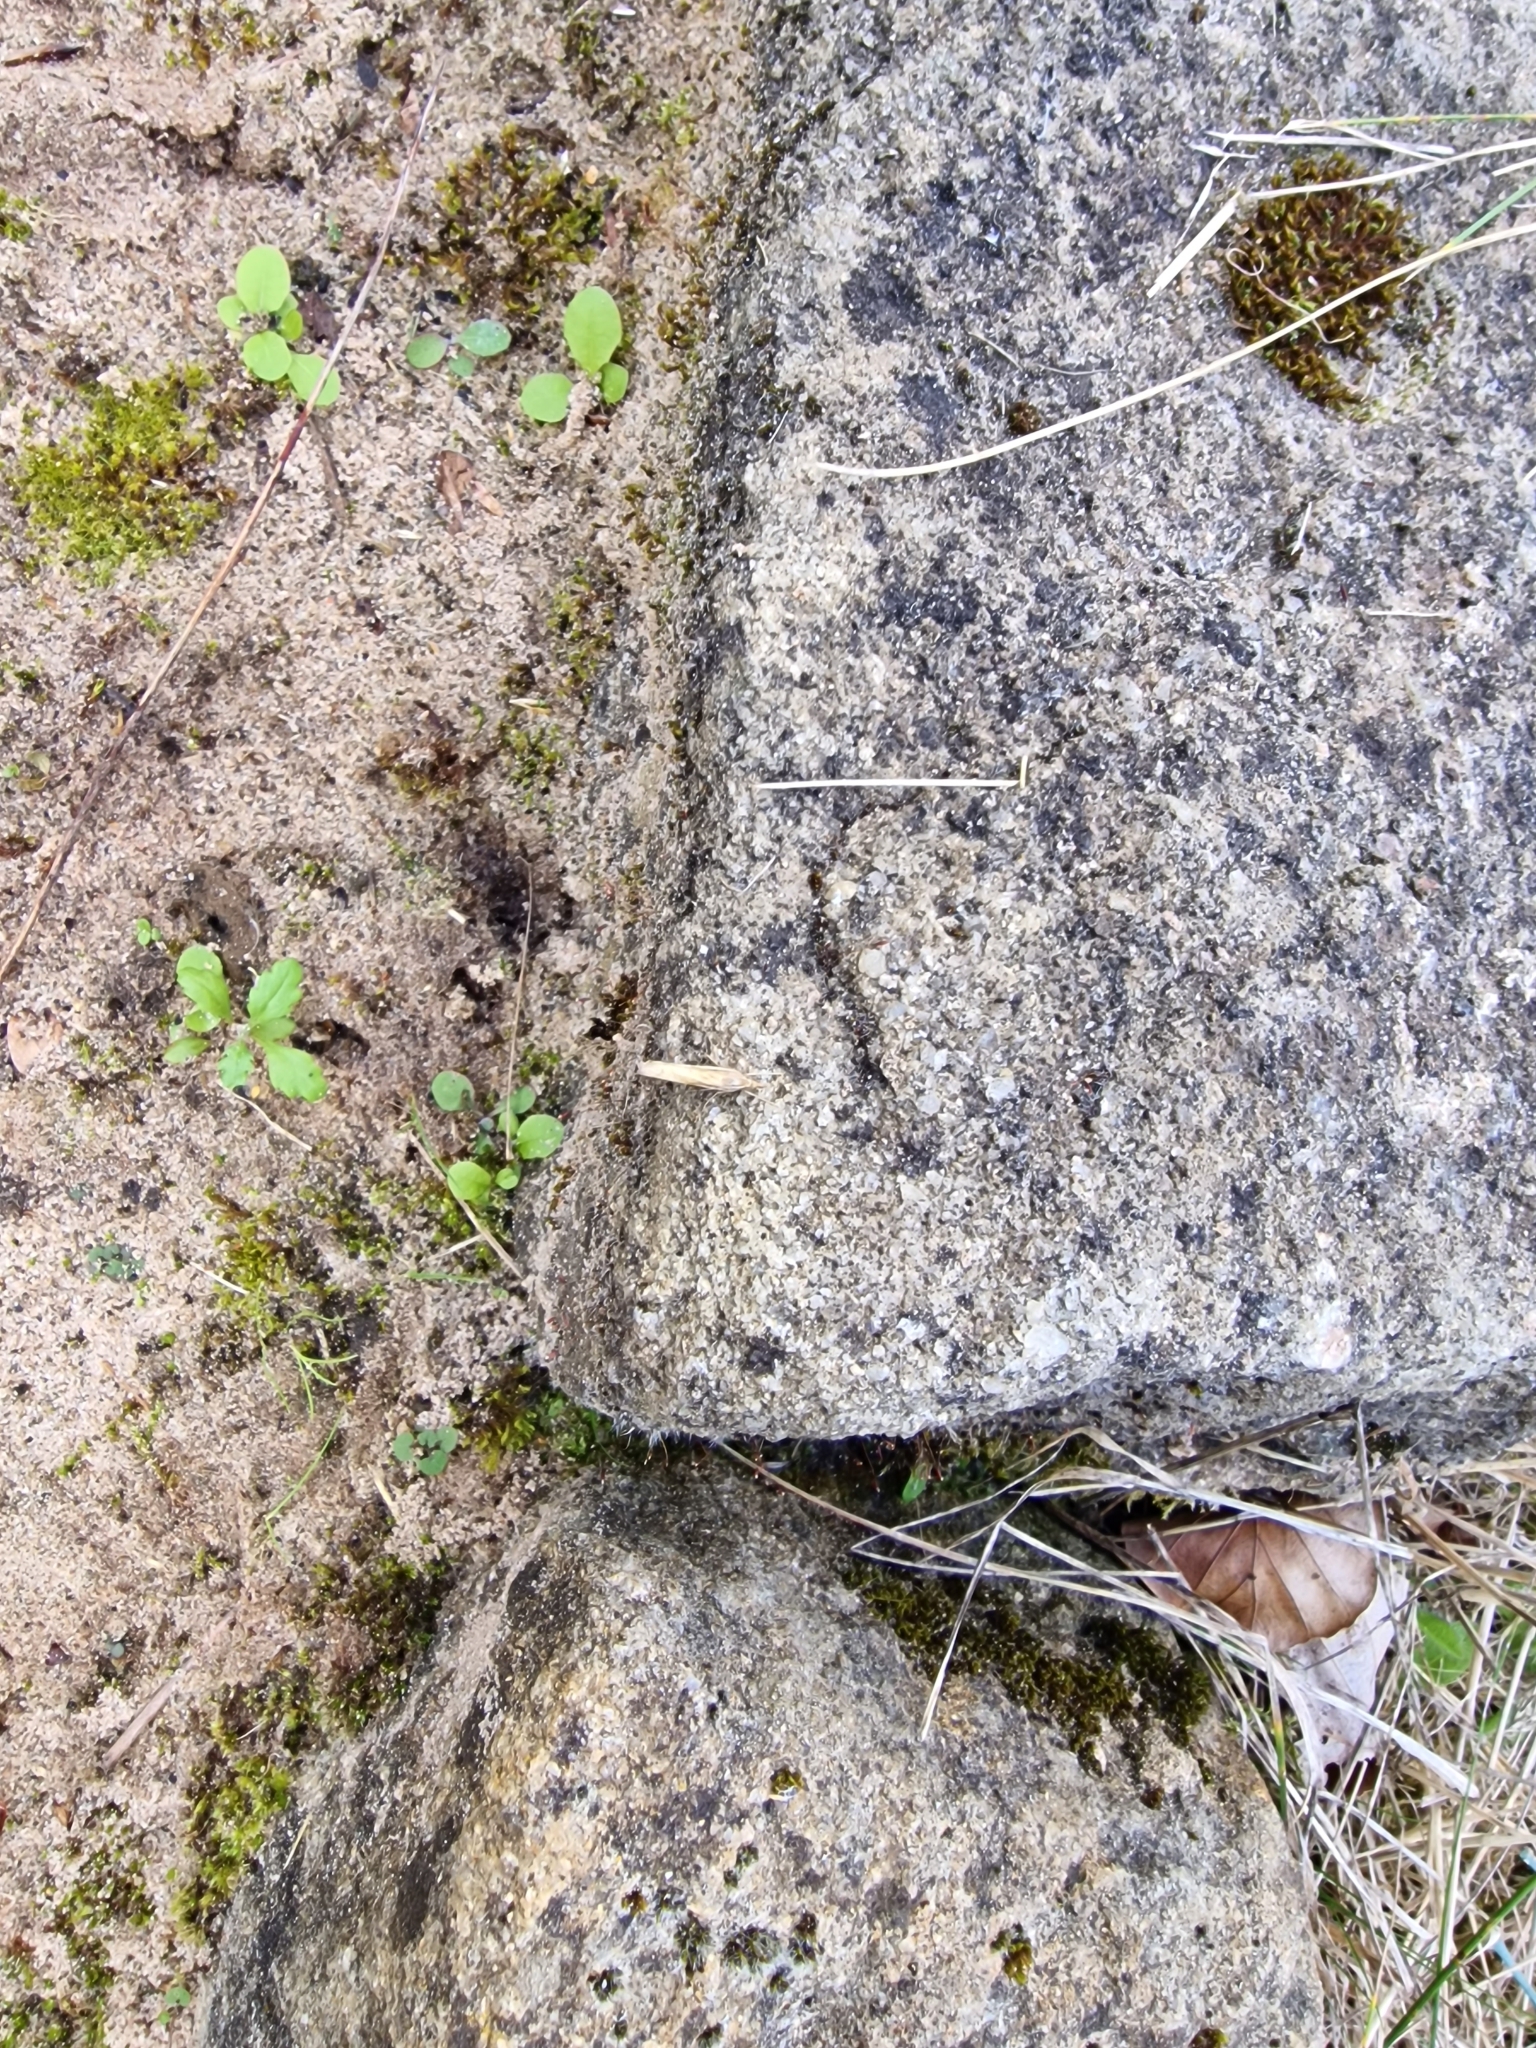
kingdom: Animalia
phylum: Arthropoda
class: Insecta
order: Lepidoptera
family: Crambidae
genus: Agriphila
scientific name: Agriphila tristellus
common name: Common grass-veneer
